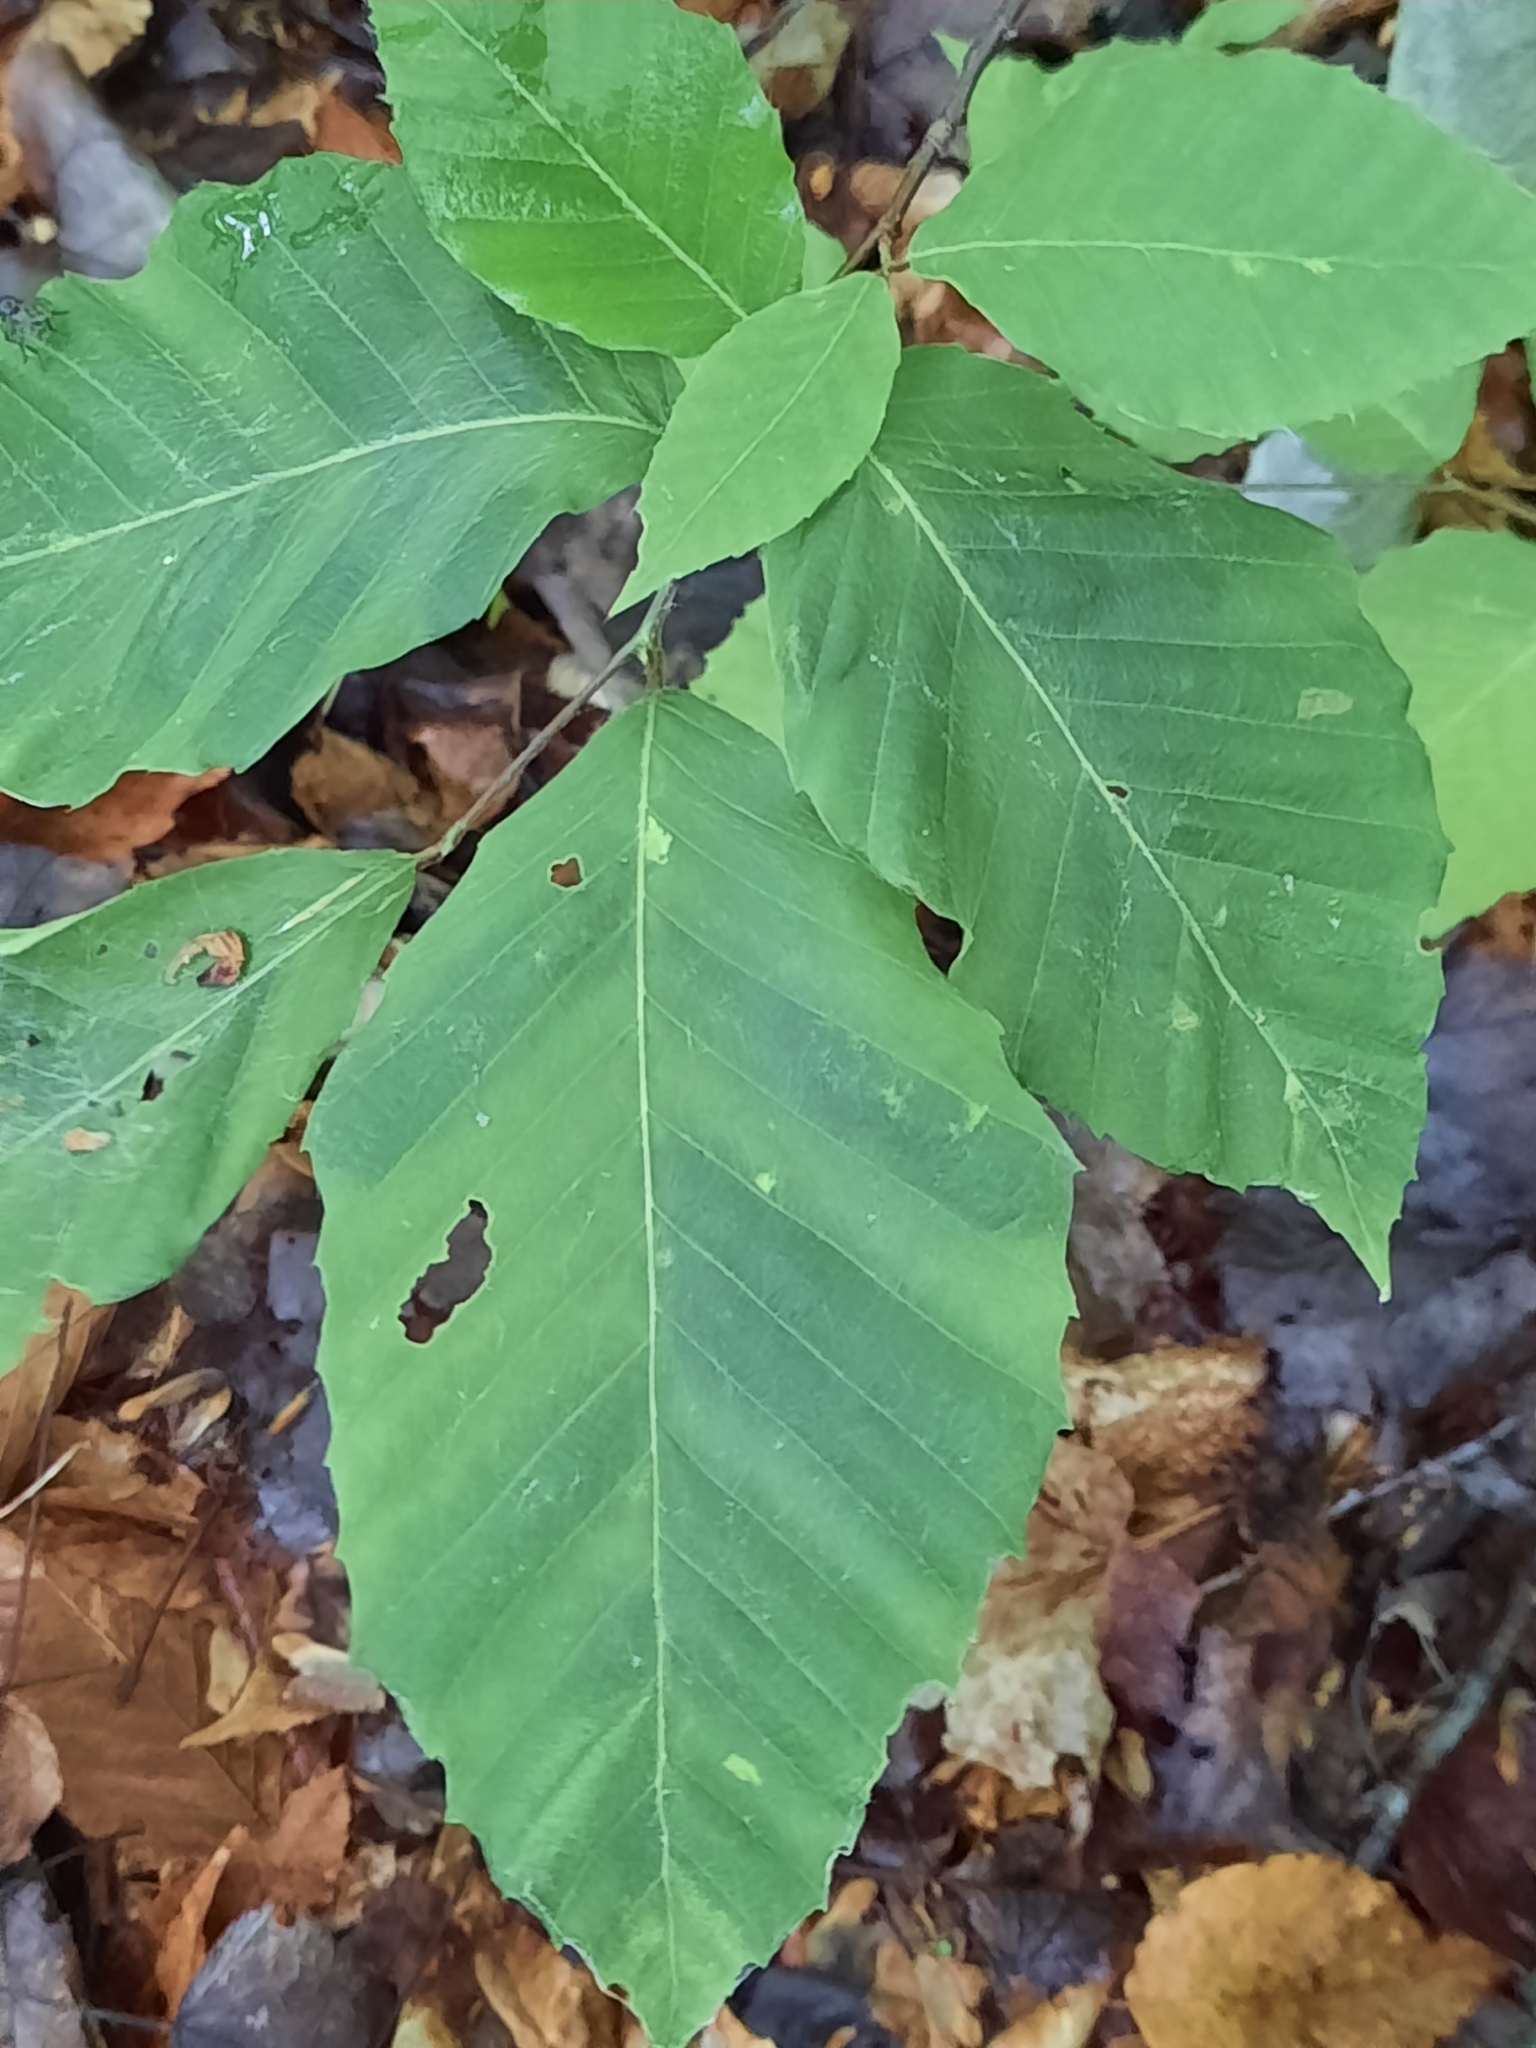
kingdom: Animalia
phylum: Nematoda
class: Chromadorea
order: Rhabditida
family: Anguinidae
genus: Litylenchus
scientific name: Litylenchus crenatae
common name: Beech leaf disease
